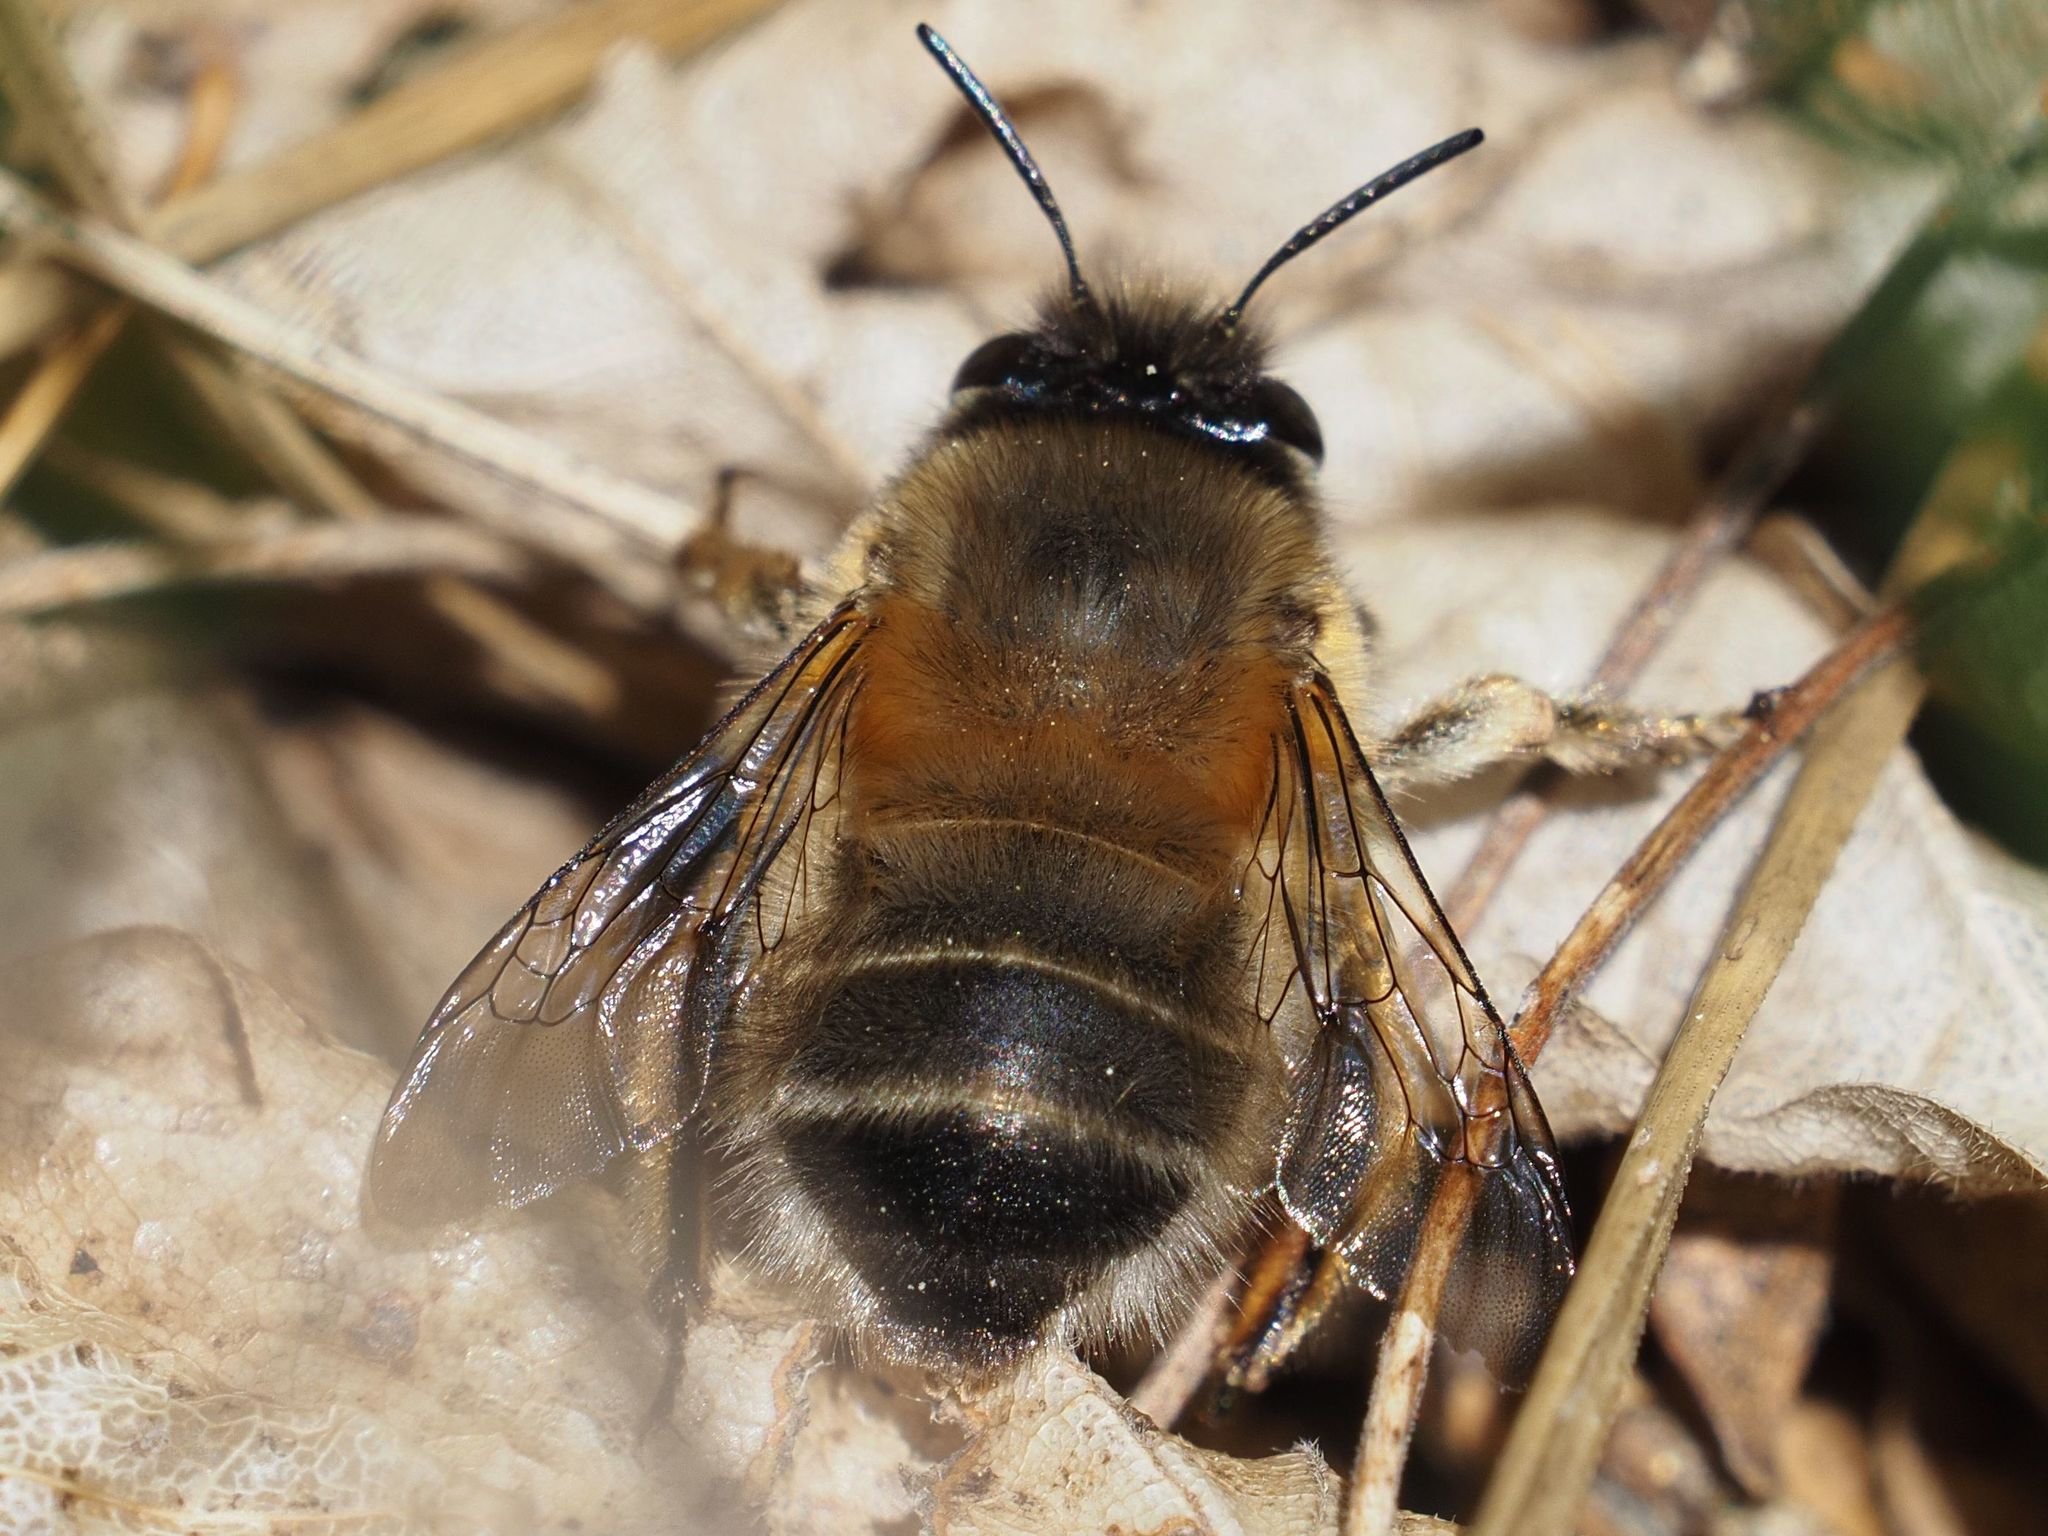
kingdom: Animalia
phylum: Arthropoda
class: Insecta
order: Hymenoptera
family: Apidae
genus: Anthophora
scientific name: Anthophora plumipes
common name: Hairy-footed flower bee
